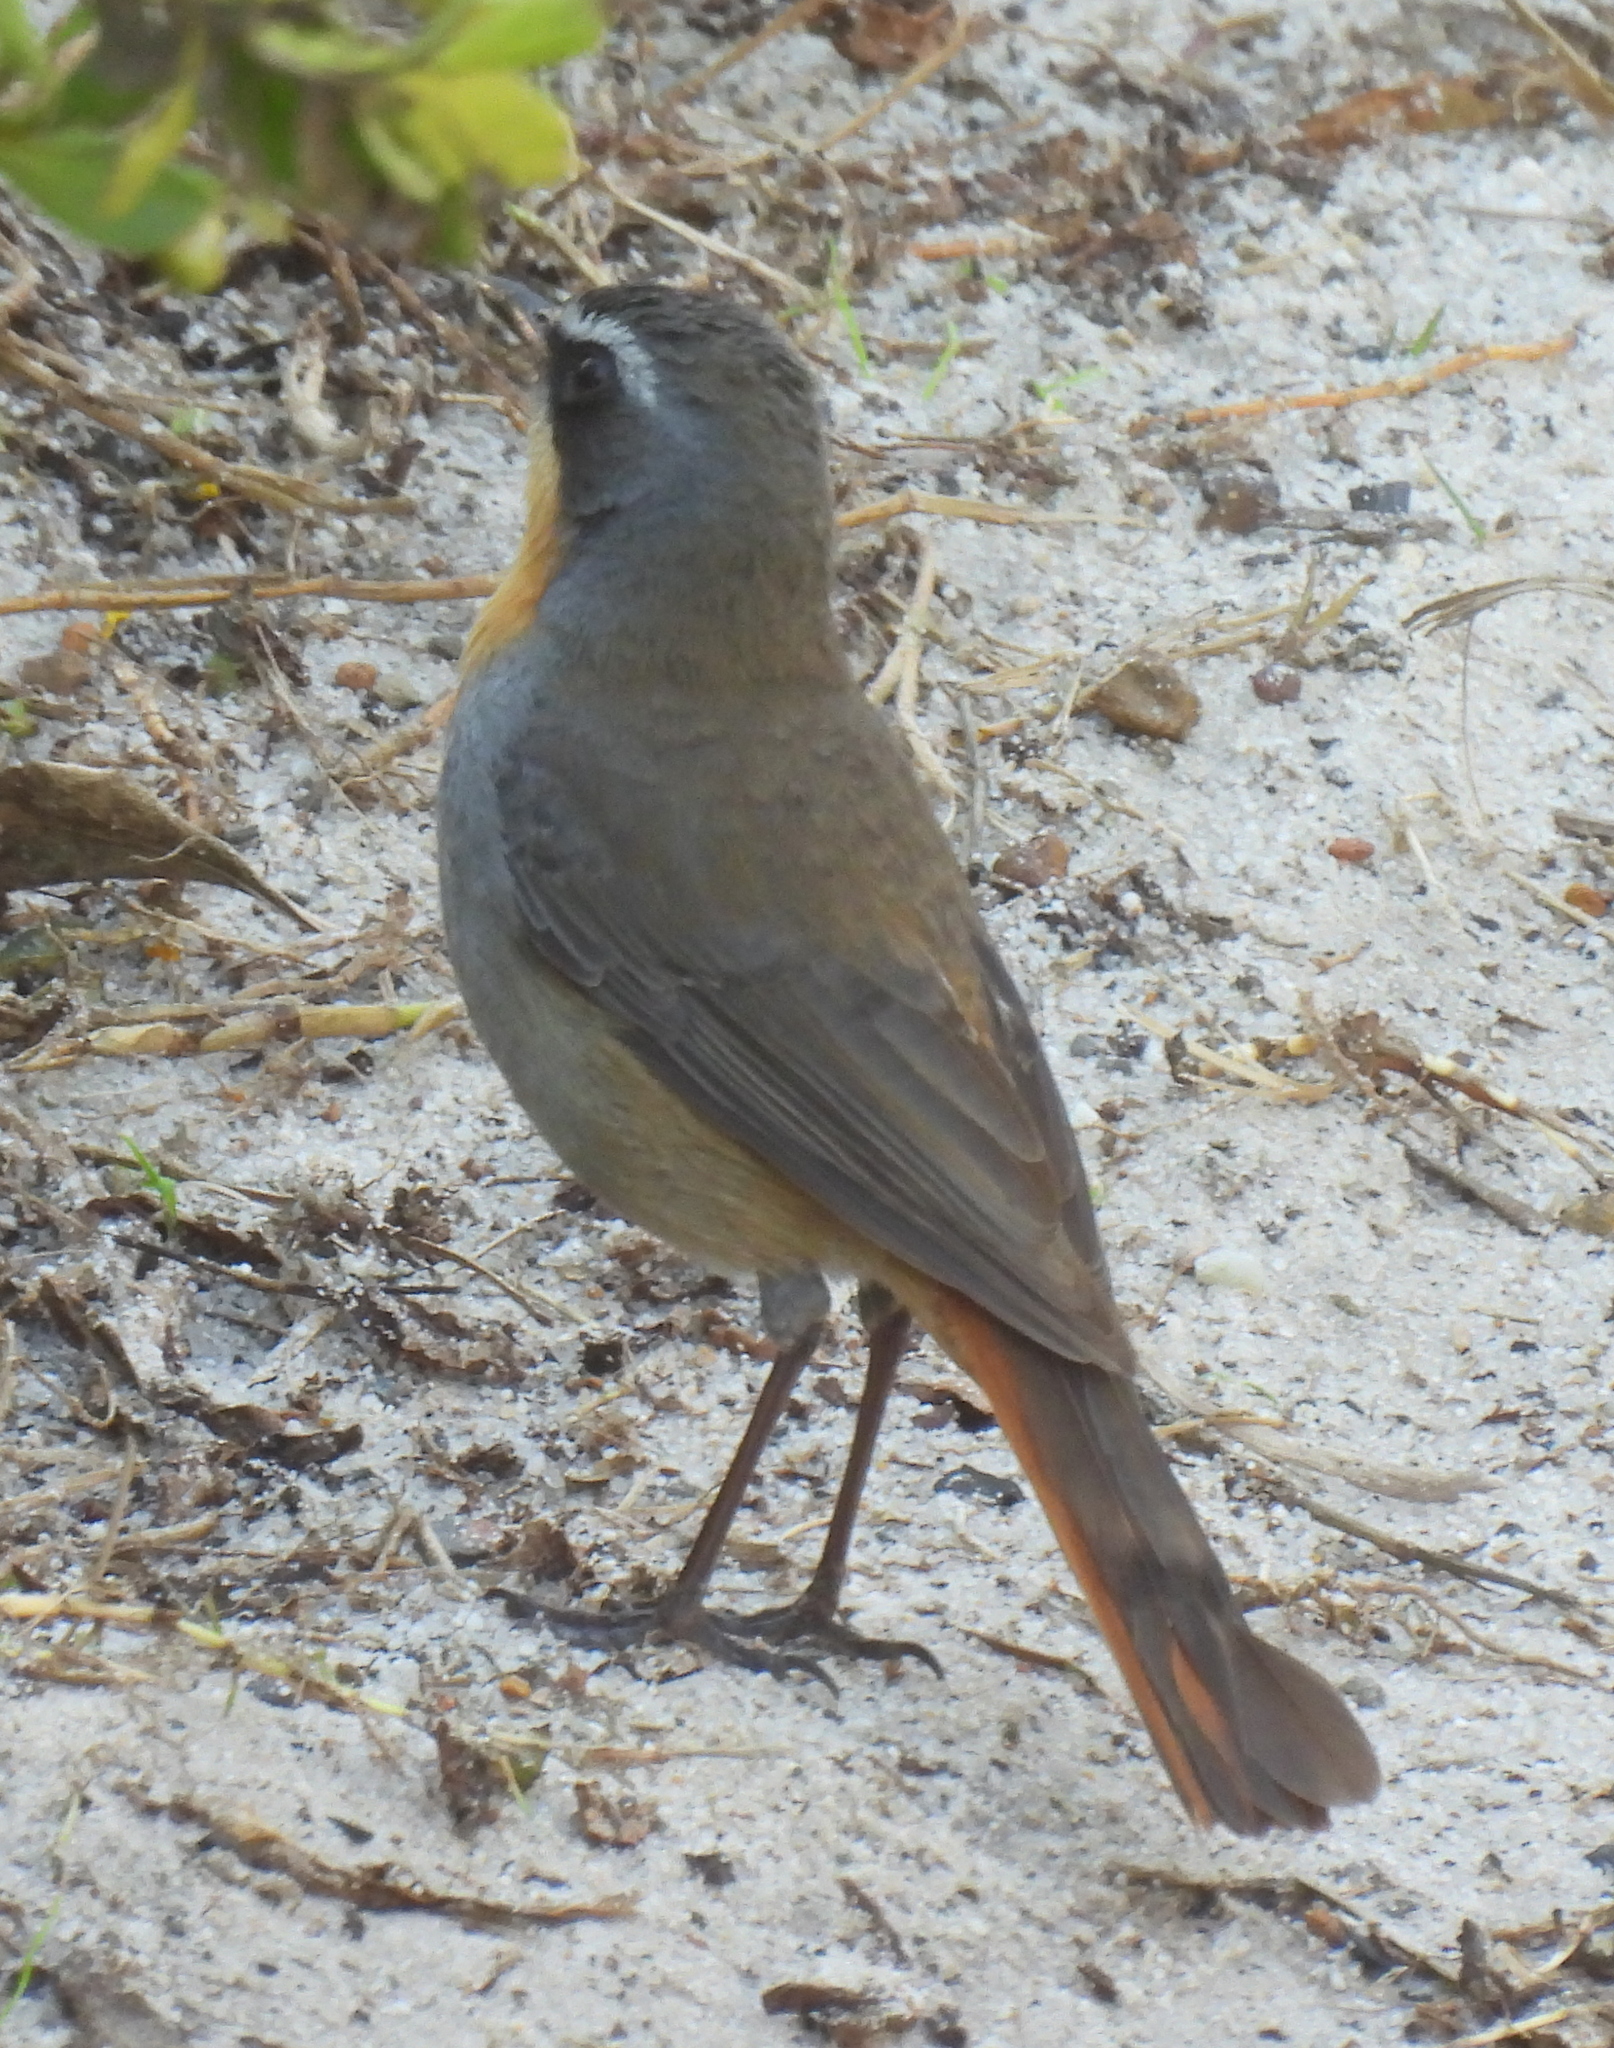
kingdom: Animalia
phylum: Chordata
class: Aves
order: Passeriformes
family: Muscicapidae
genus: Cossypha
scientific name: Cossypha caffra
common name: Cape robin-chat
